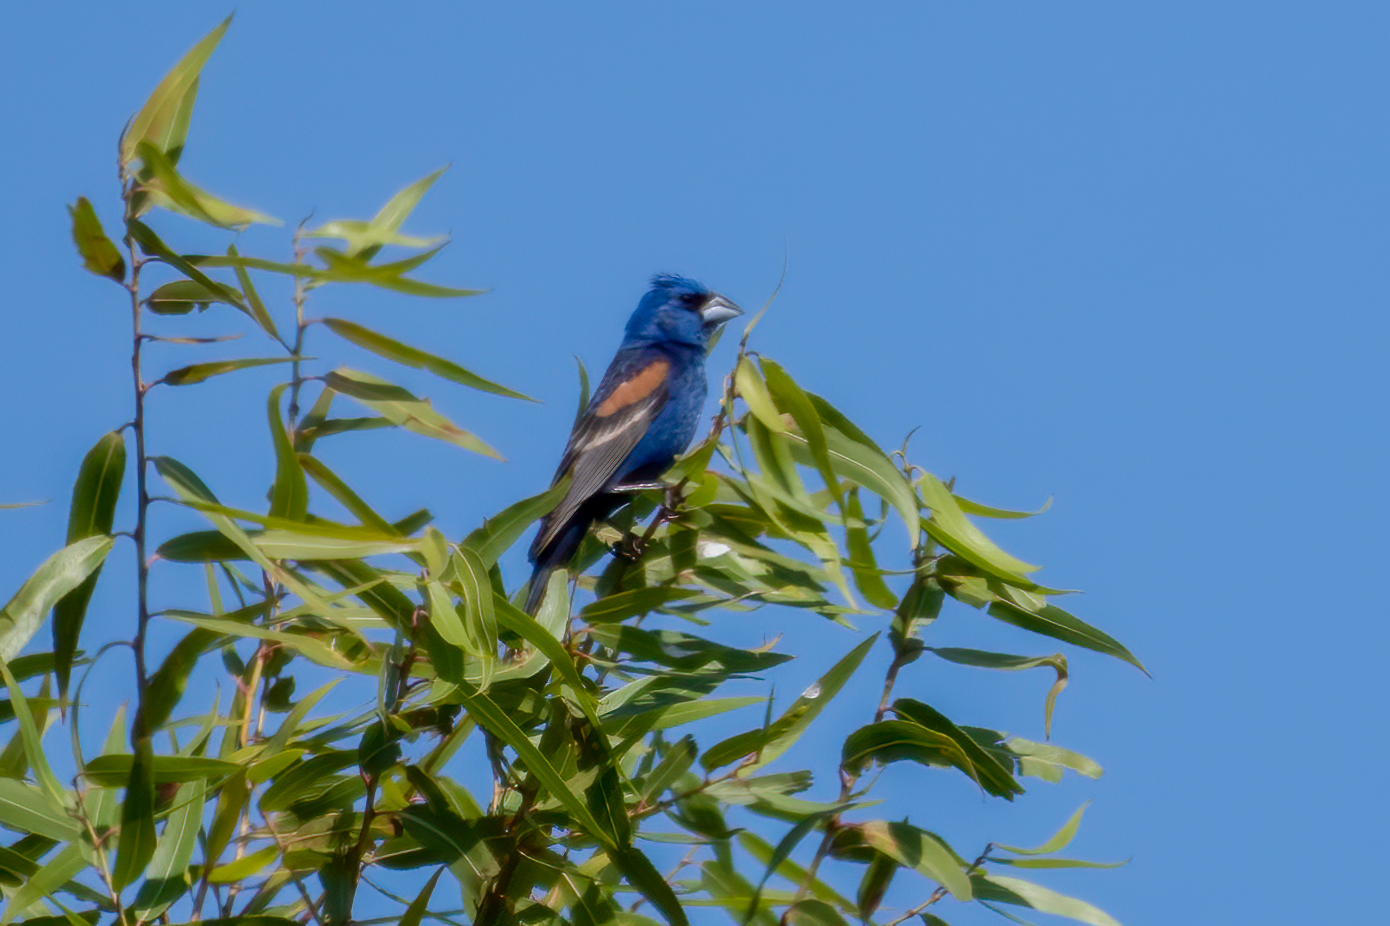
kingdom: Animalia
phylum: Chordata
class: Aves
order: Passeriformes
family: Cardinalidae
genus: Passerina
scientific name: Passerina caerulea
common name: Blue grosbeak
